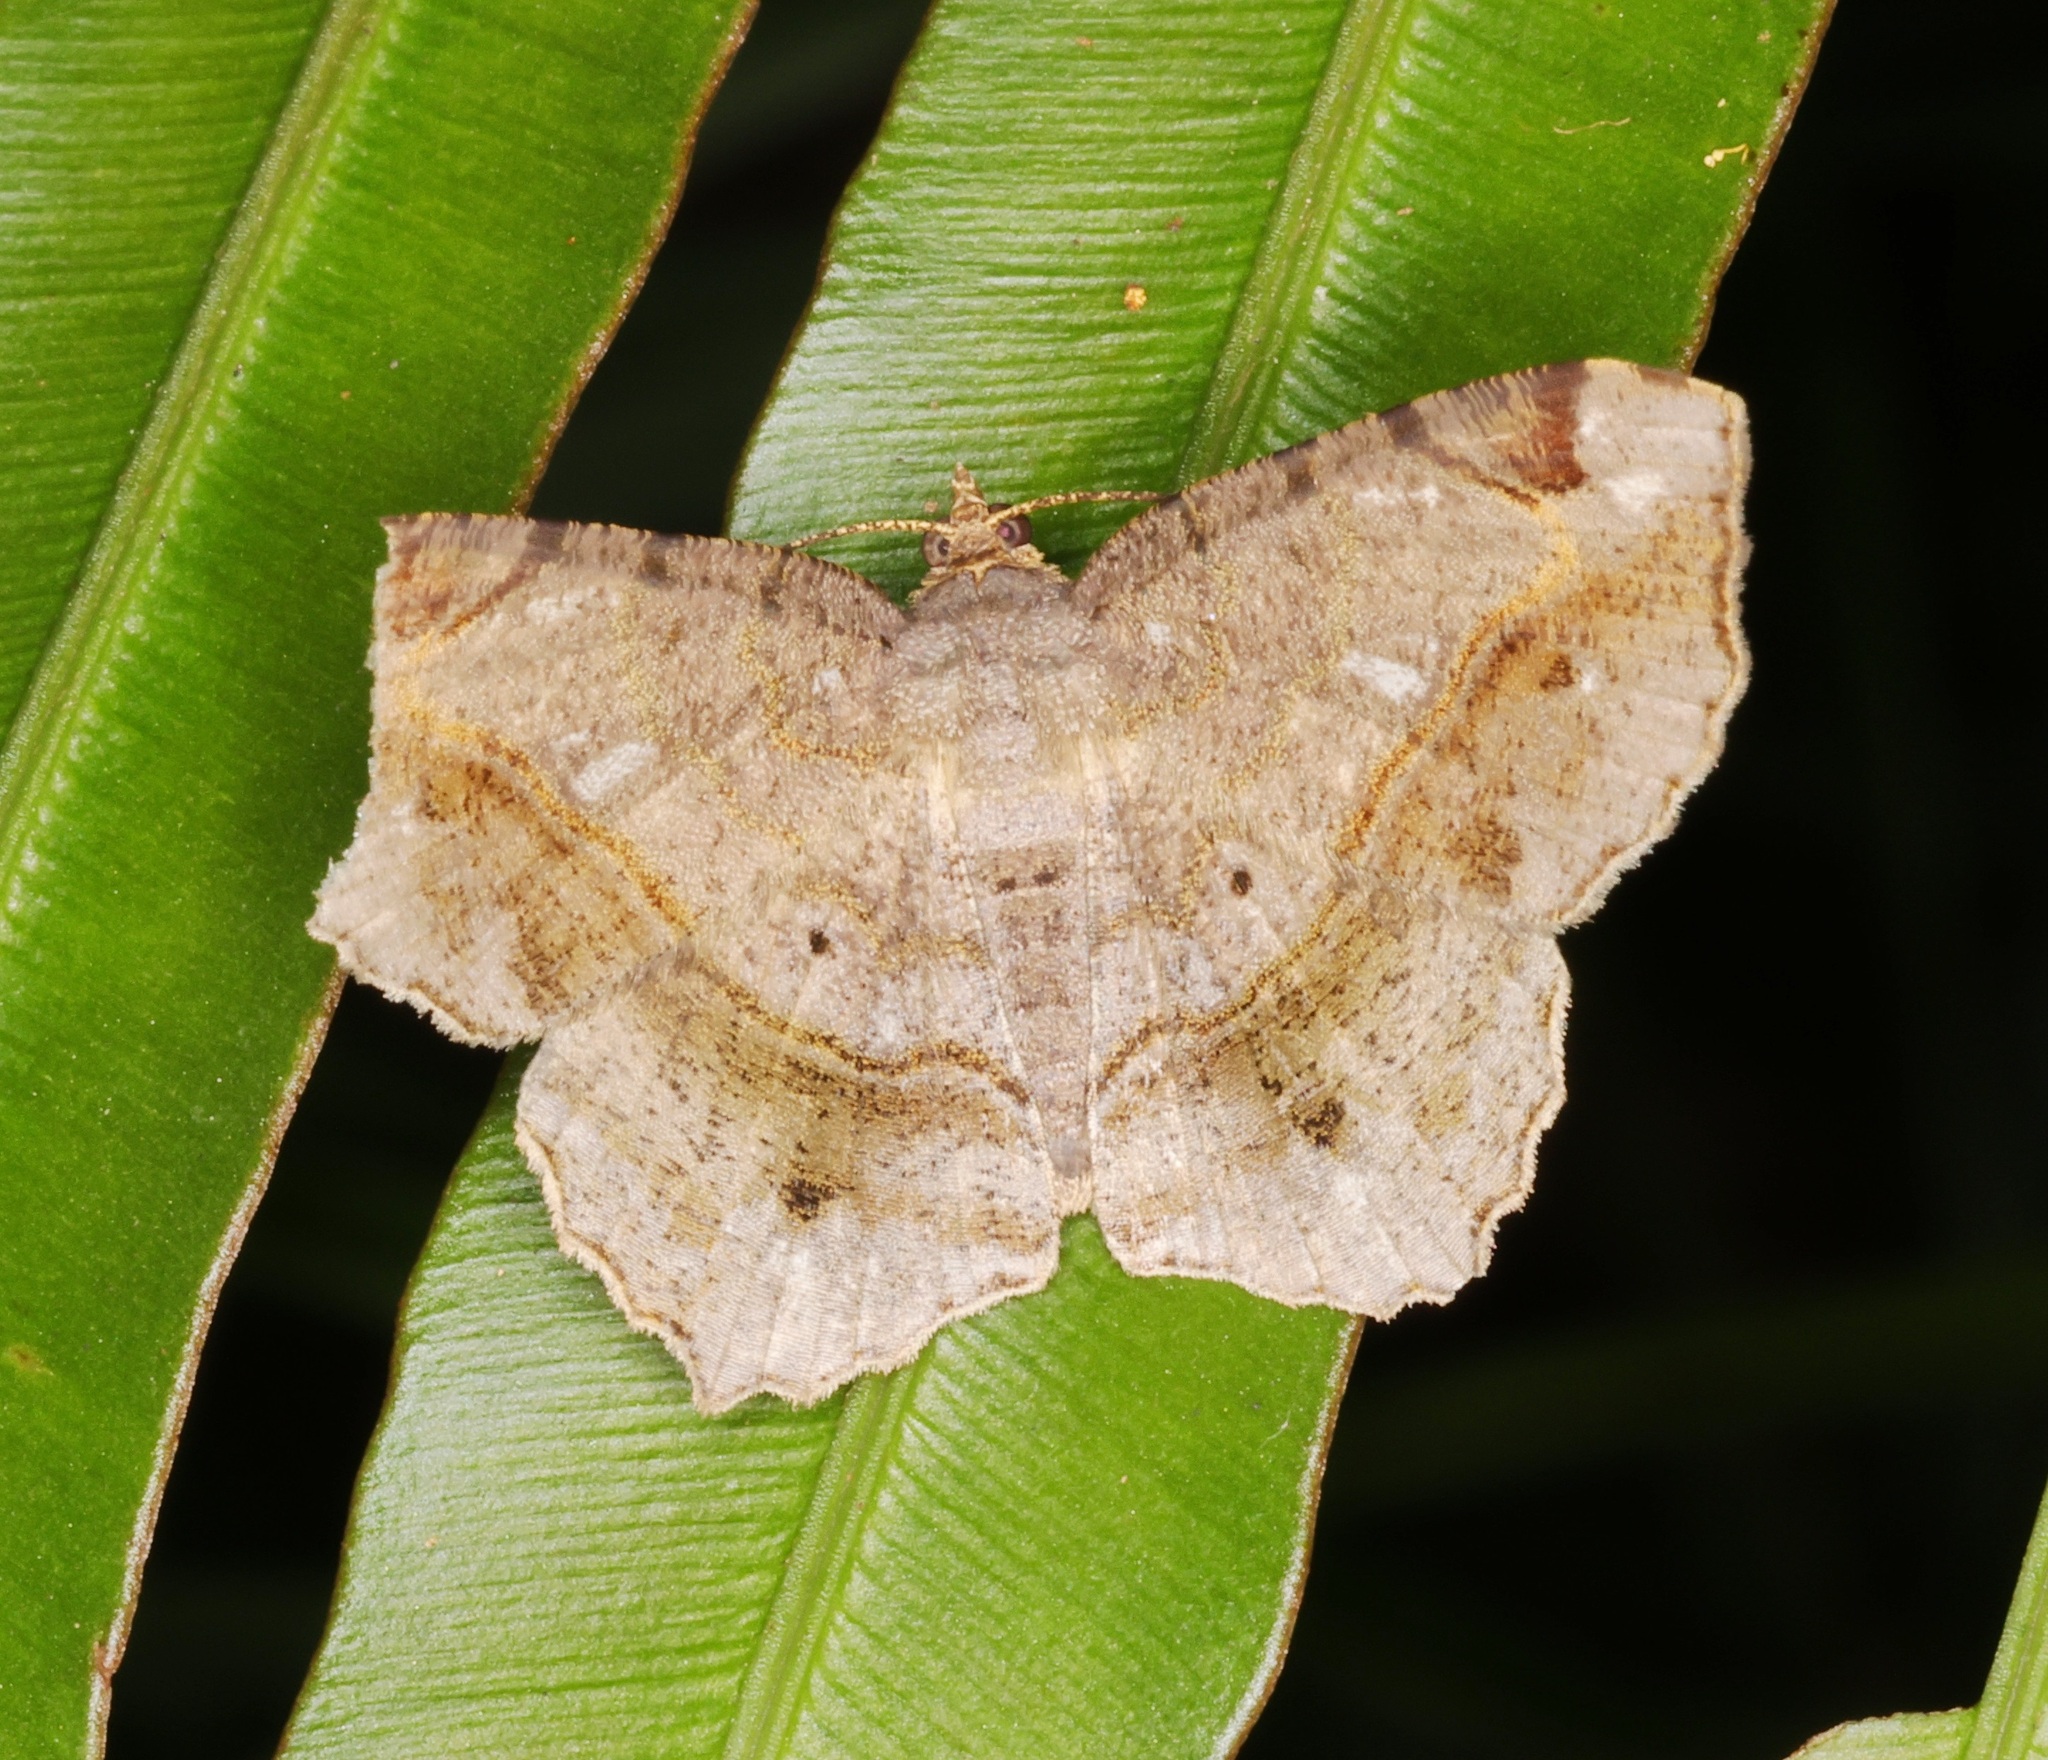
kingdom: Animalia
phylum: Arthropoda
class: Insecta
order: Lepidoptera
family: Geometridae
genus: Chiasmia
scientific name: Chiasmia cymatodes
